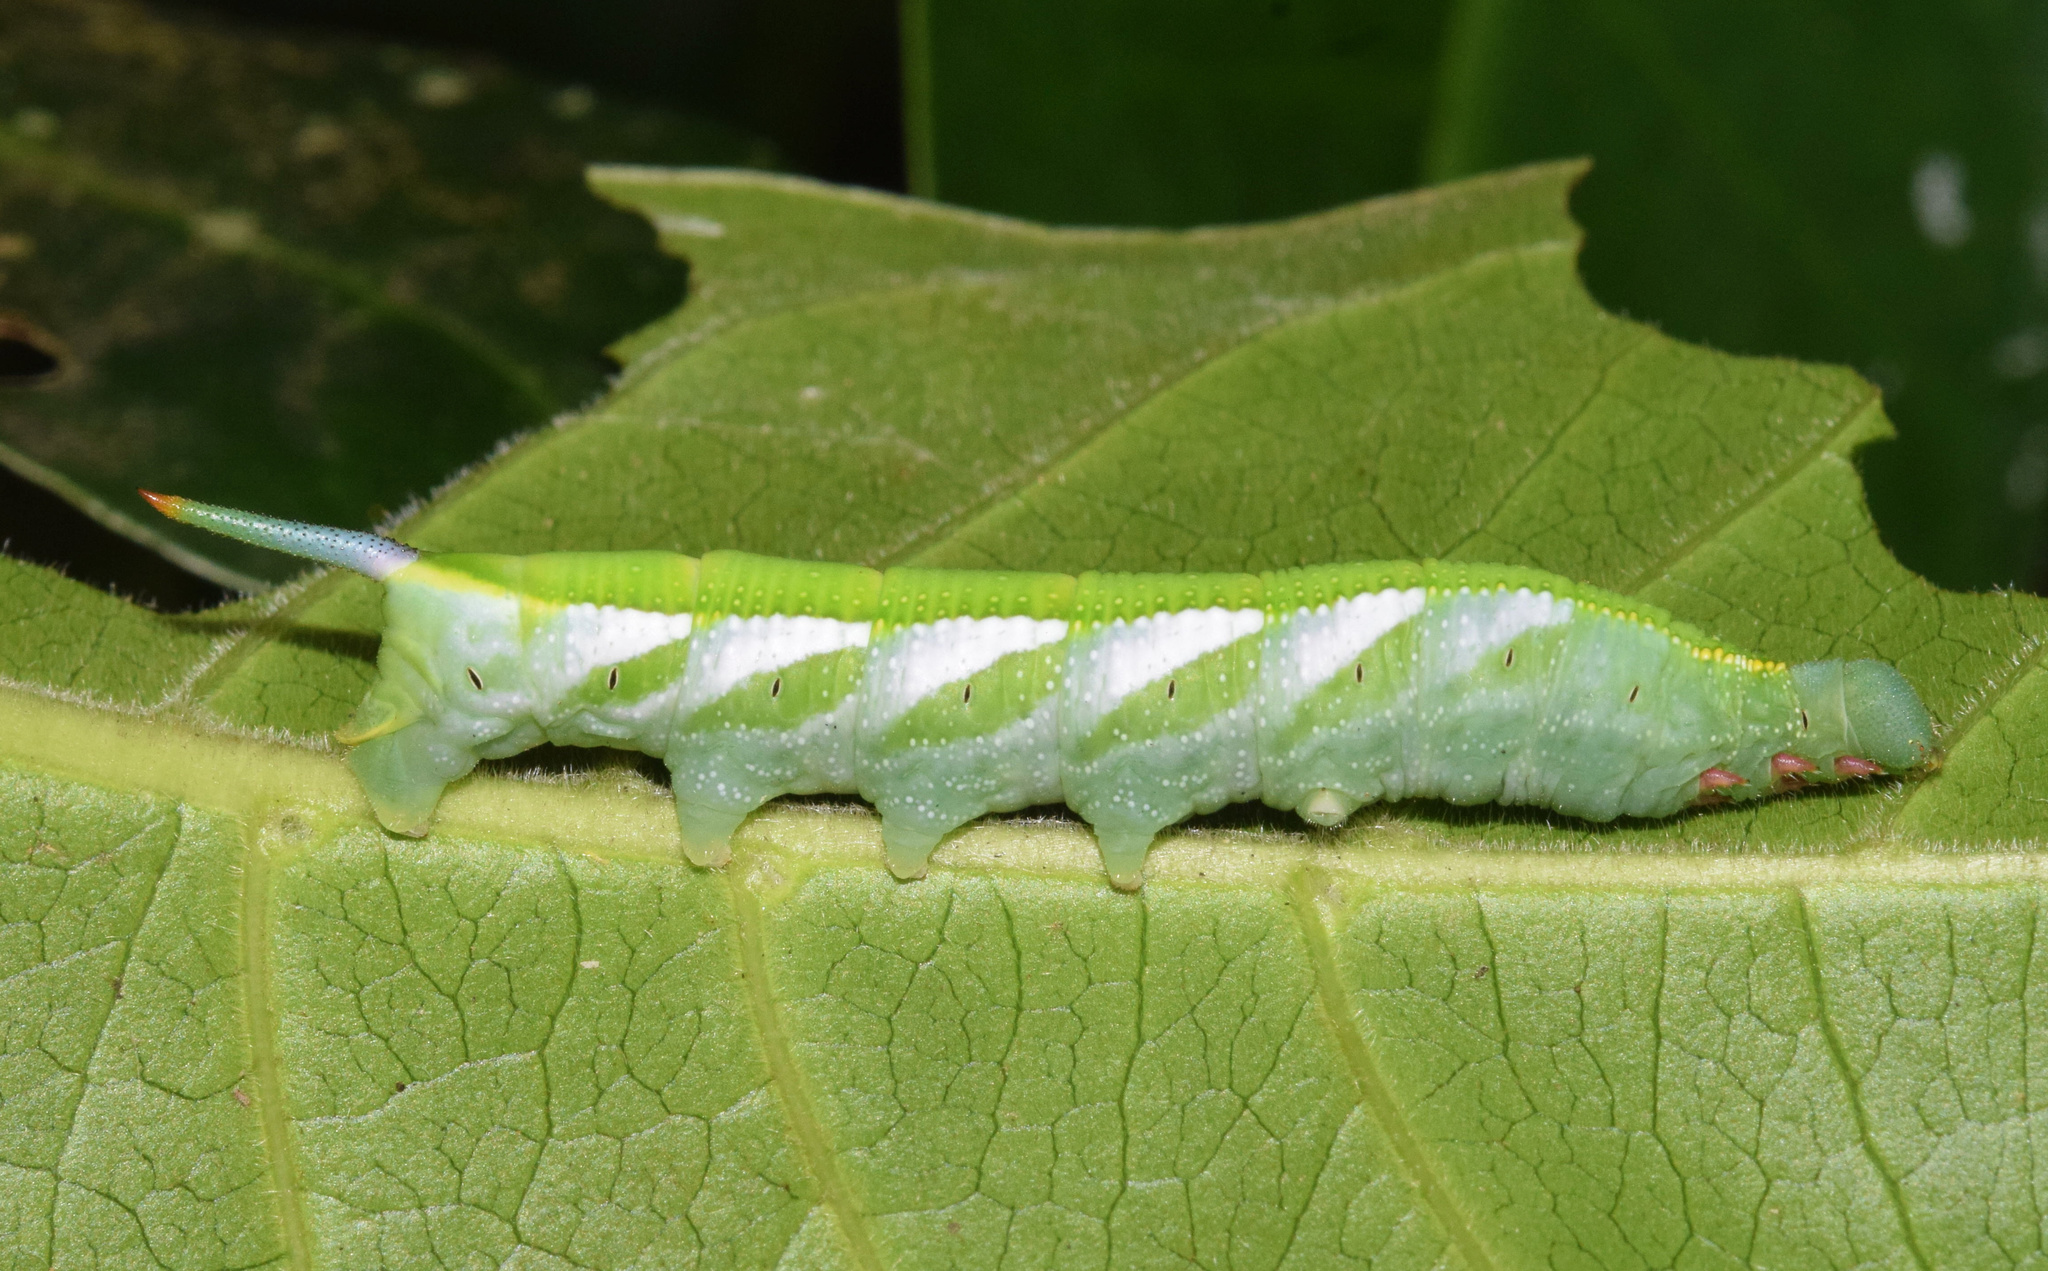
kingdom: Animalia
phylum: Arthropoda
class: Insecta
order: Lepidoptera
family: Sphingidae
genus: Temnora
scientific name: Temnora marginata
